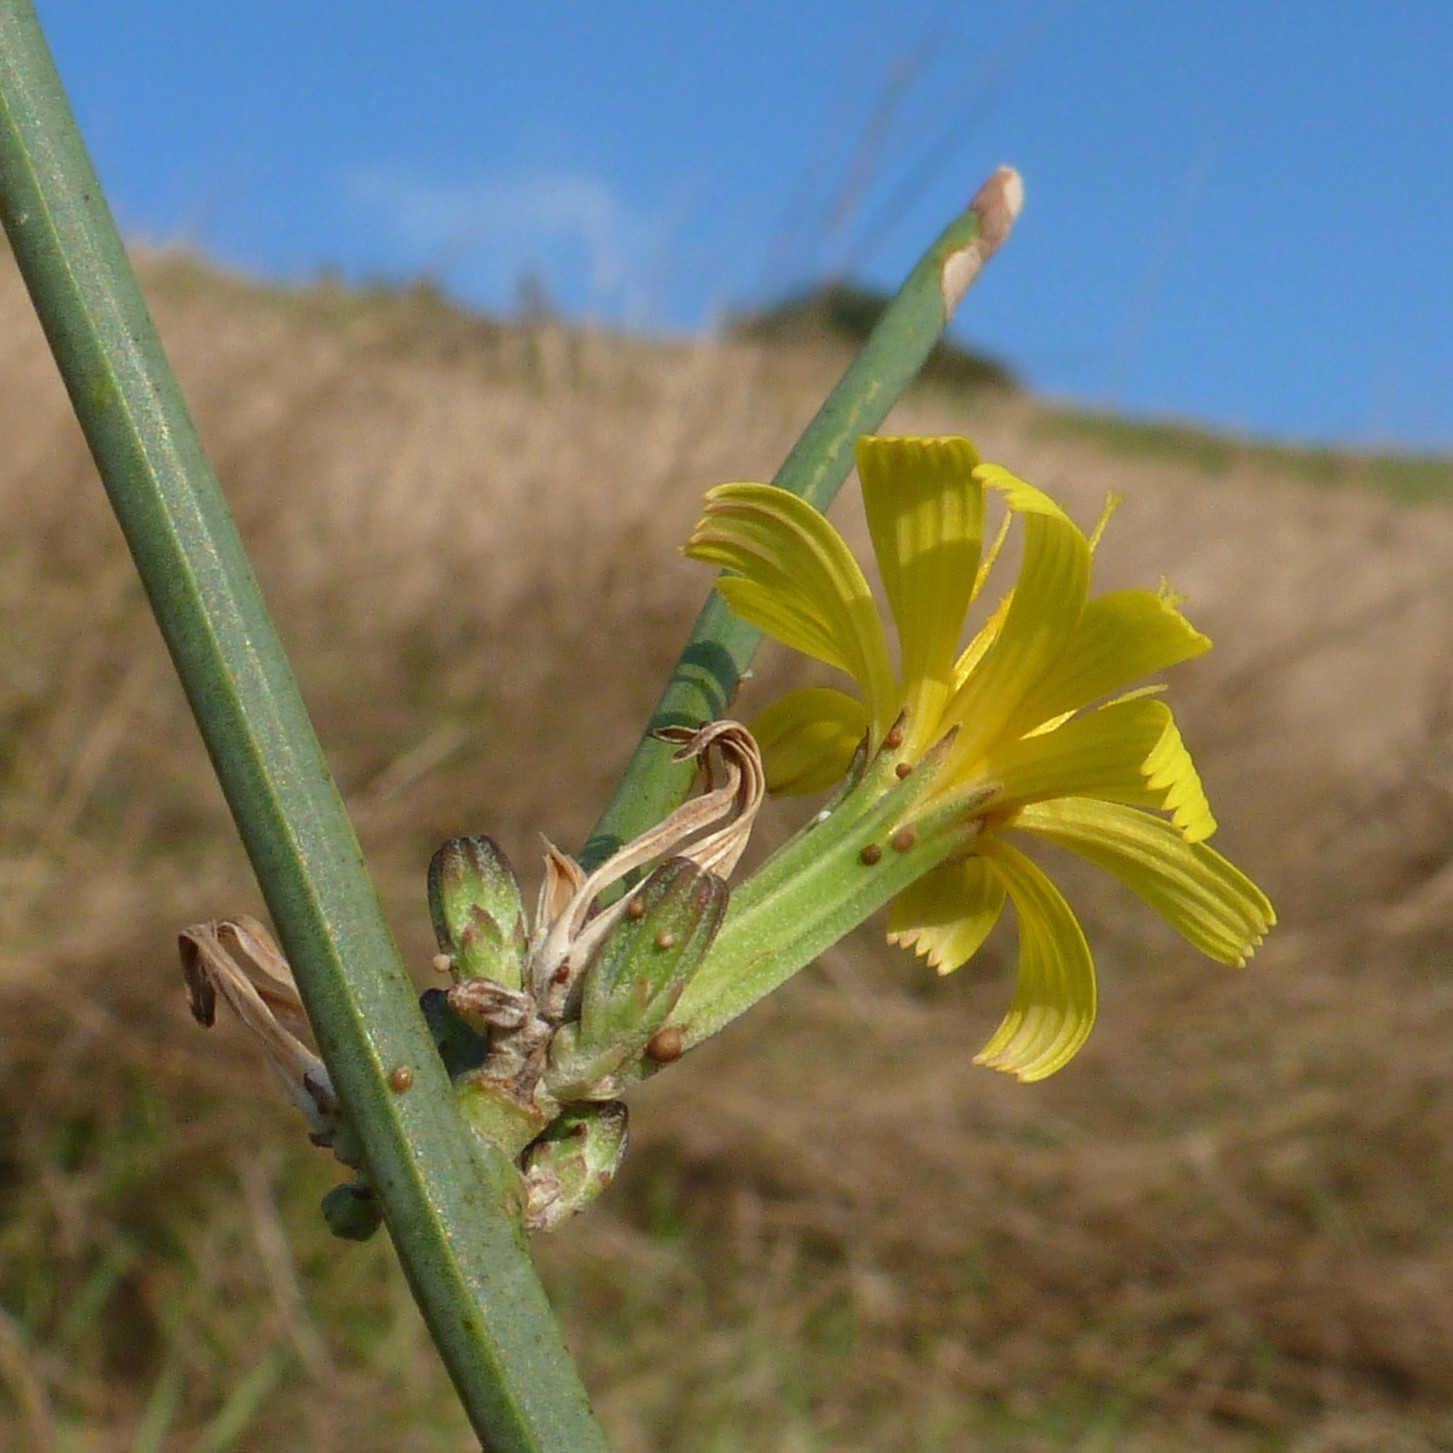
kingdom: Plantae
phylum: Tracheophyta
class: Magnoliopsida
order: Asterales
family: Asteraceae
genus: Chondrilla
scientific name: Chondrilla juncea
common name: Skeleton weed
